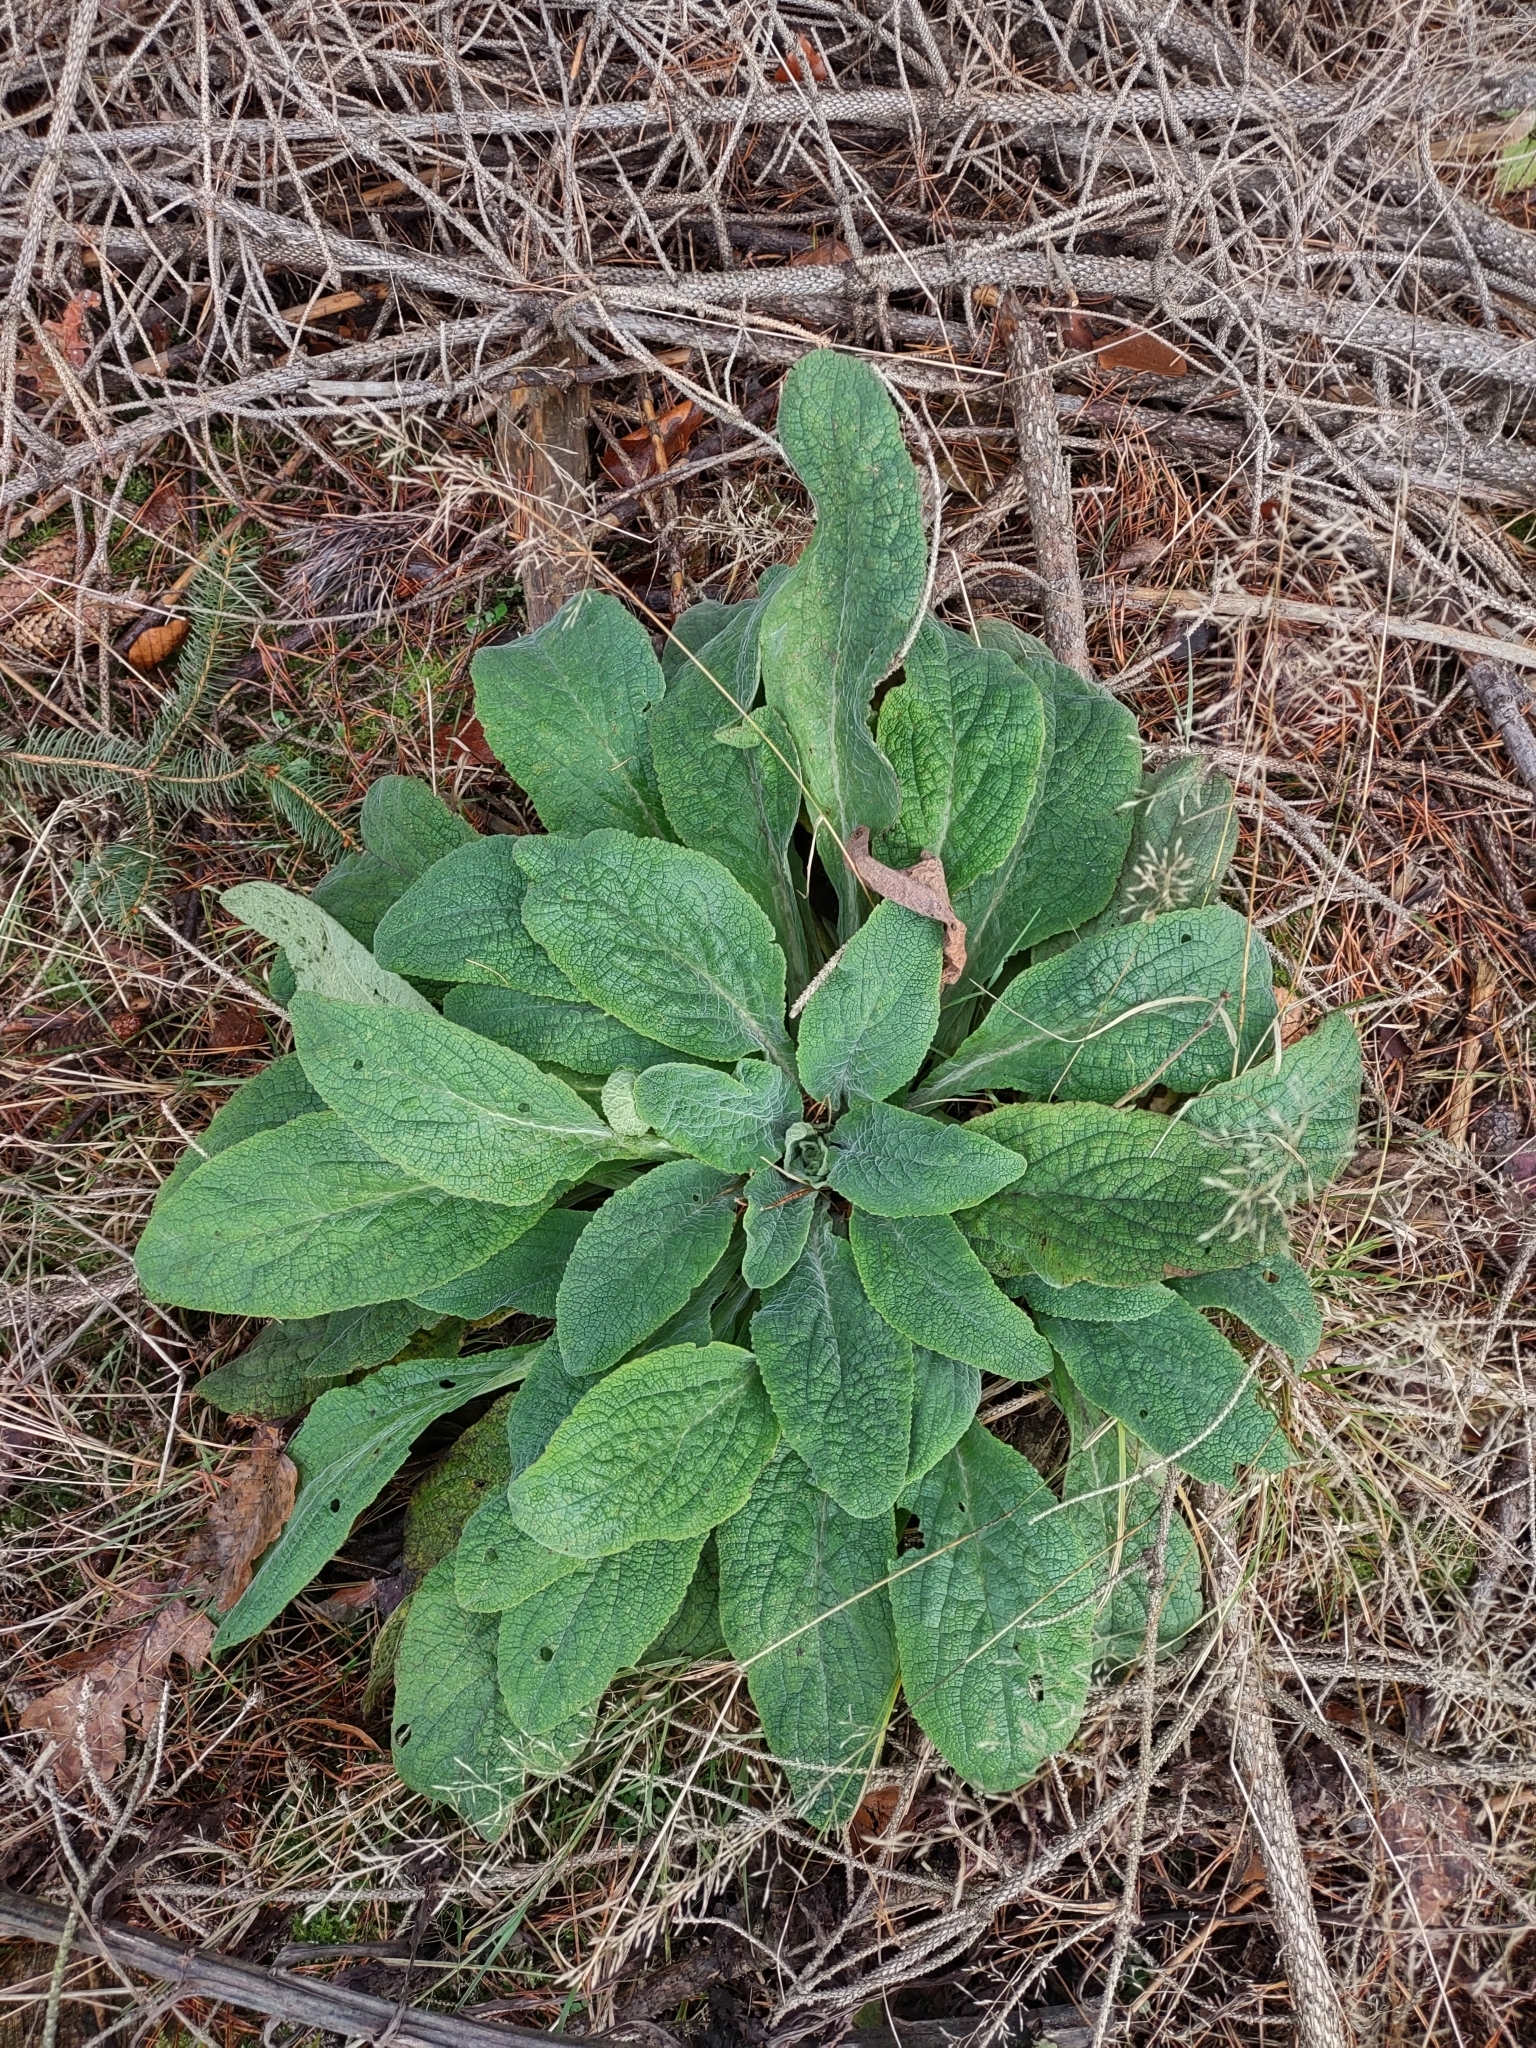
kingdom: Plantae
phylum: Tracheophyta
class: Magnoliopsida
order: Lamiales
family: Plantaginaceae
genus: Digitalis
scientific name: Digitalis purpurea
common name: Foxglove
